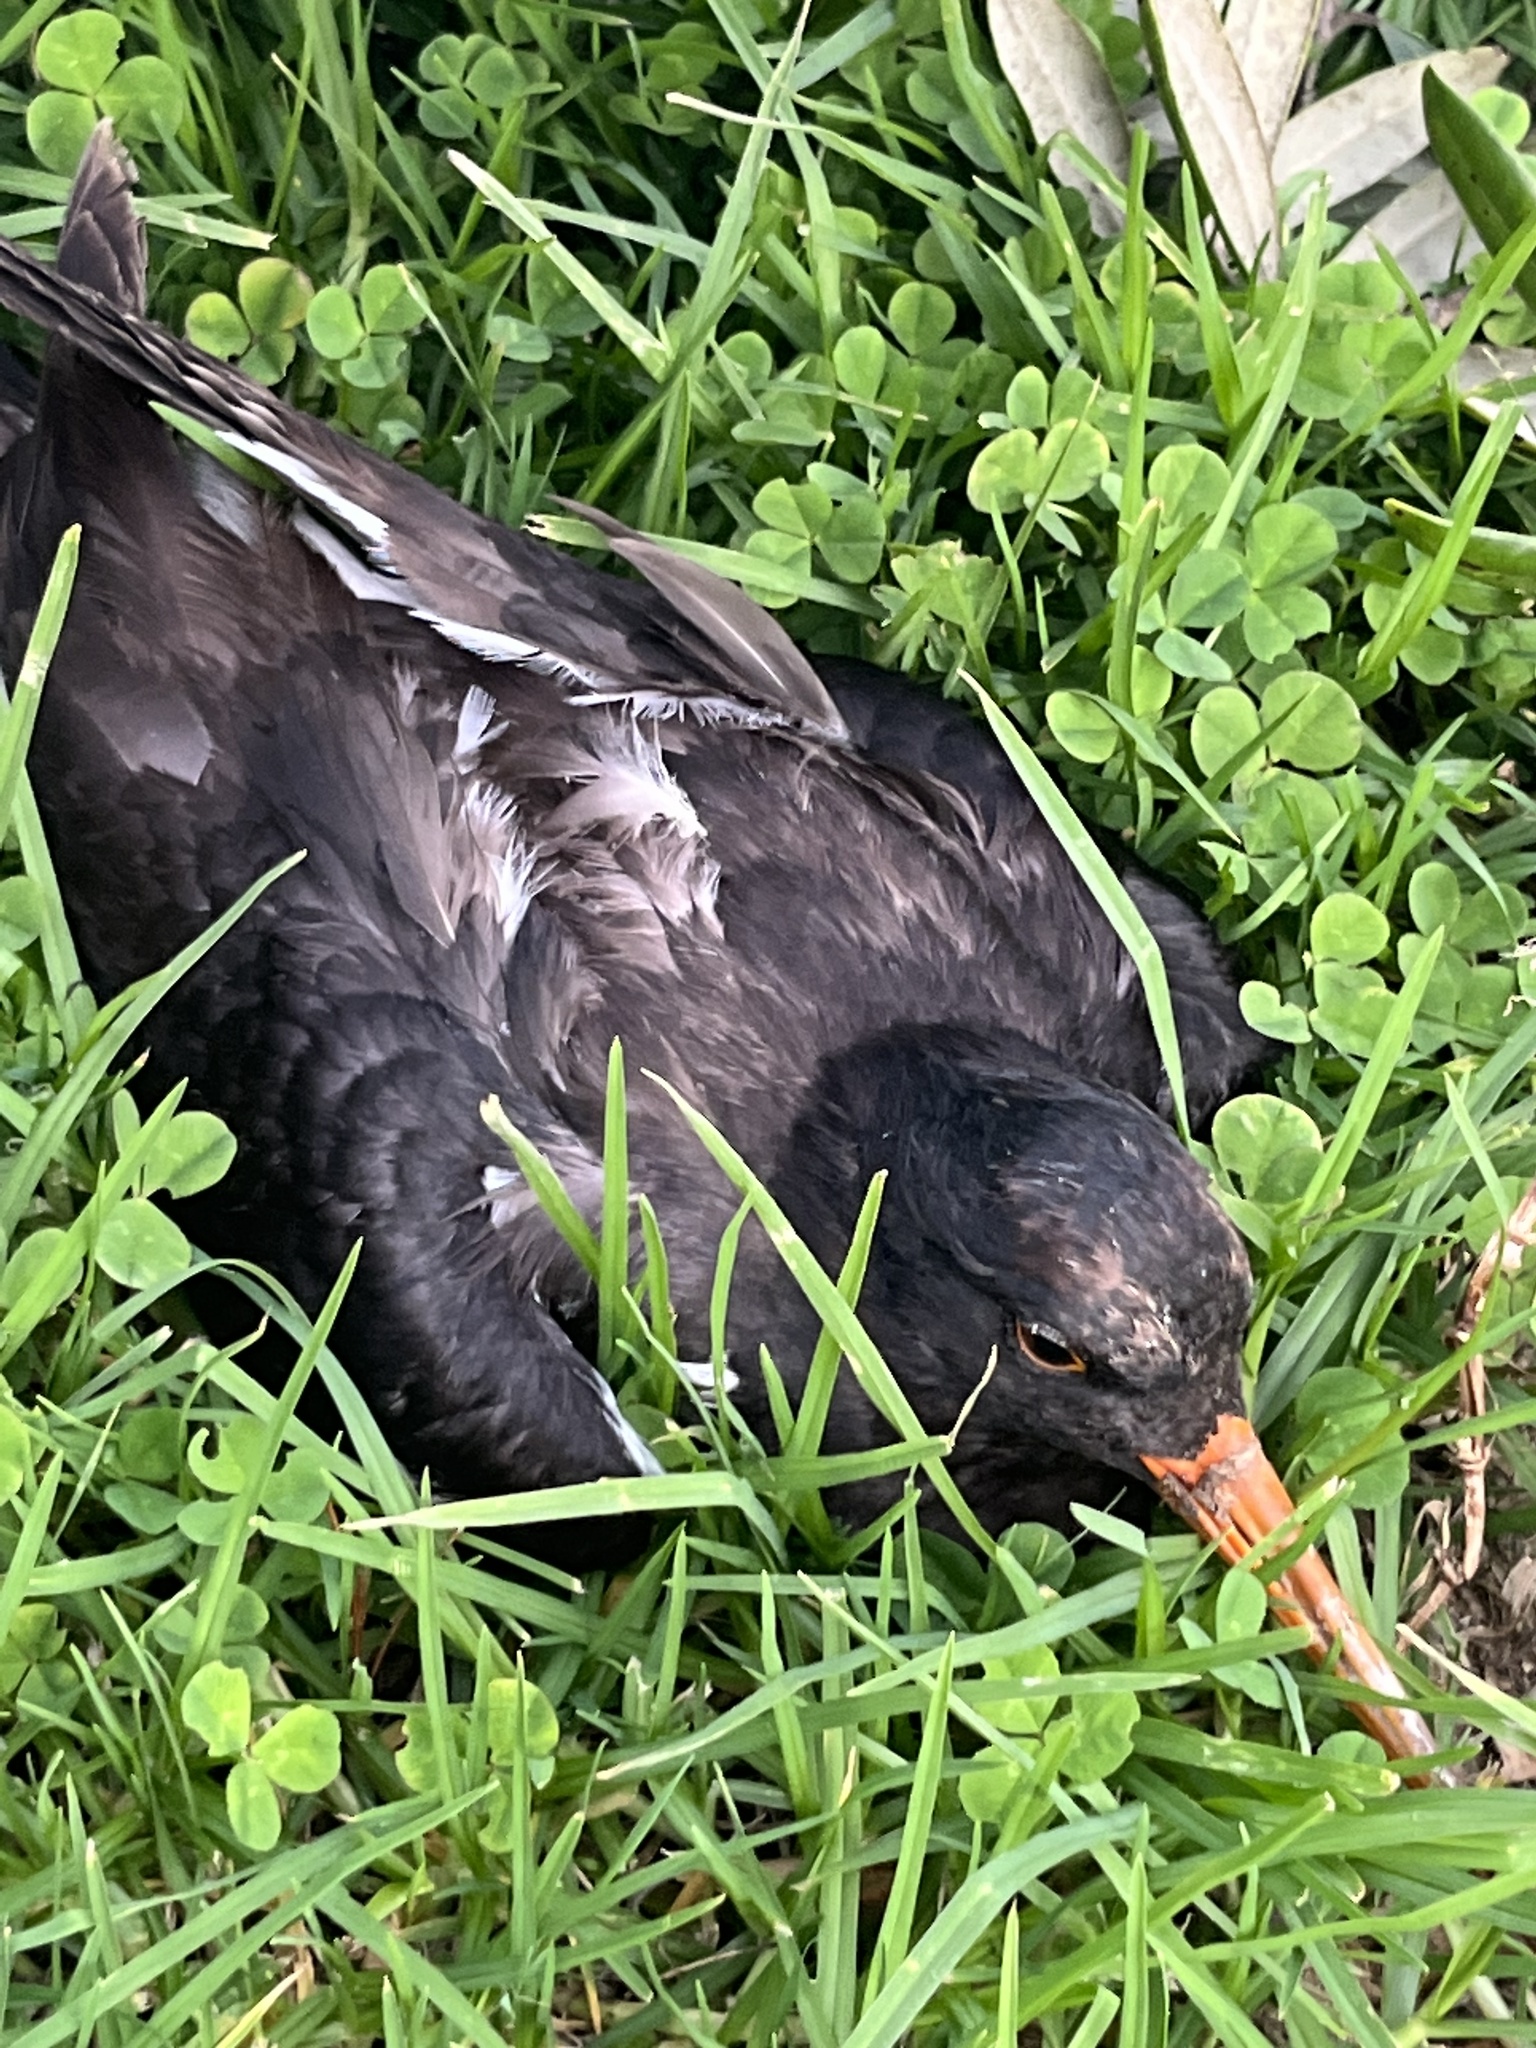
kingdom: Animalia
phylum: Chordata
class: Aves
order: Charadriiformes
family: Haematopodidae
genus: Haematopus
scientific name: Haematopus finschi
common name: South island oystercatcher
